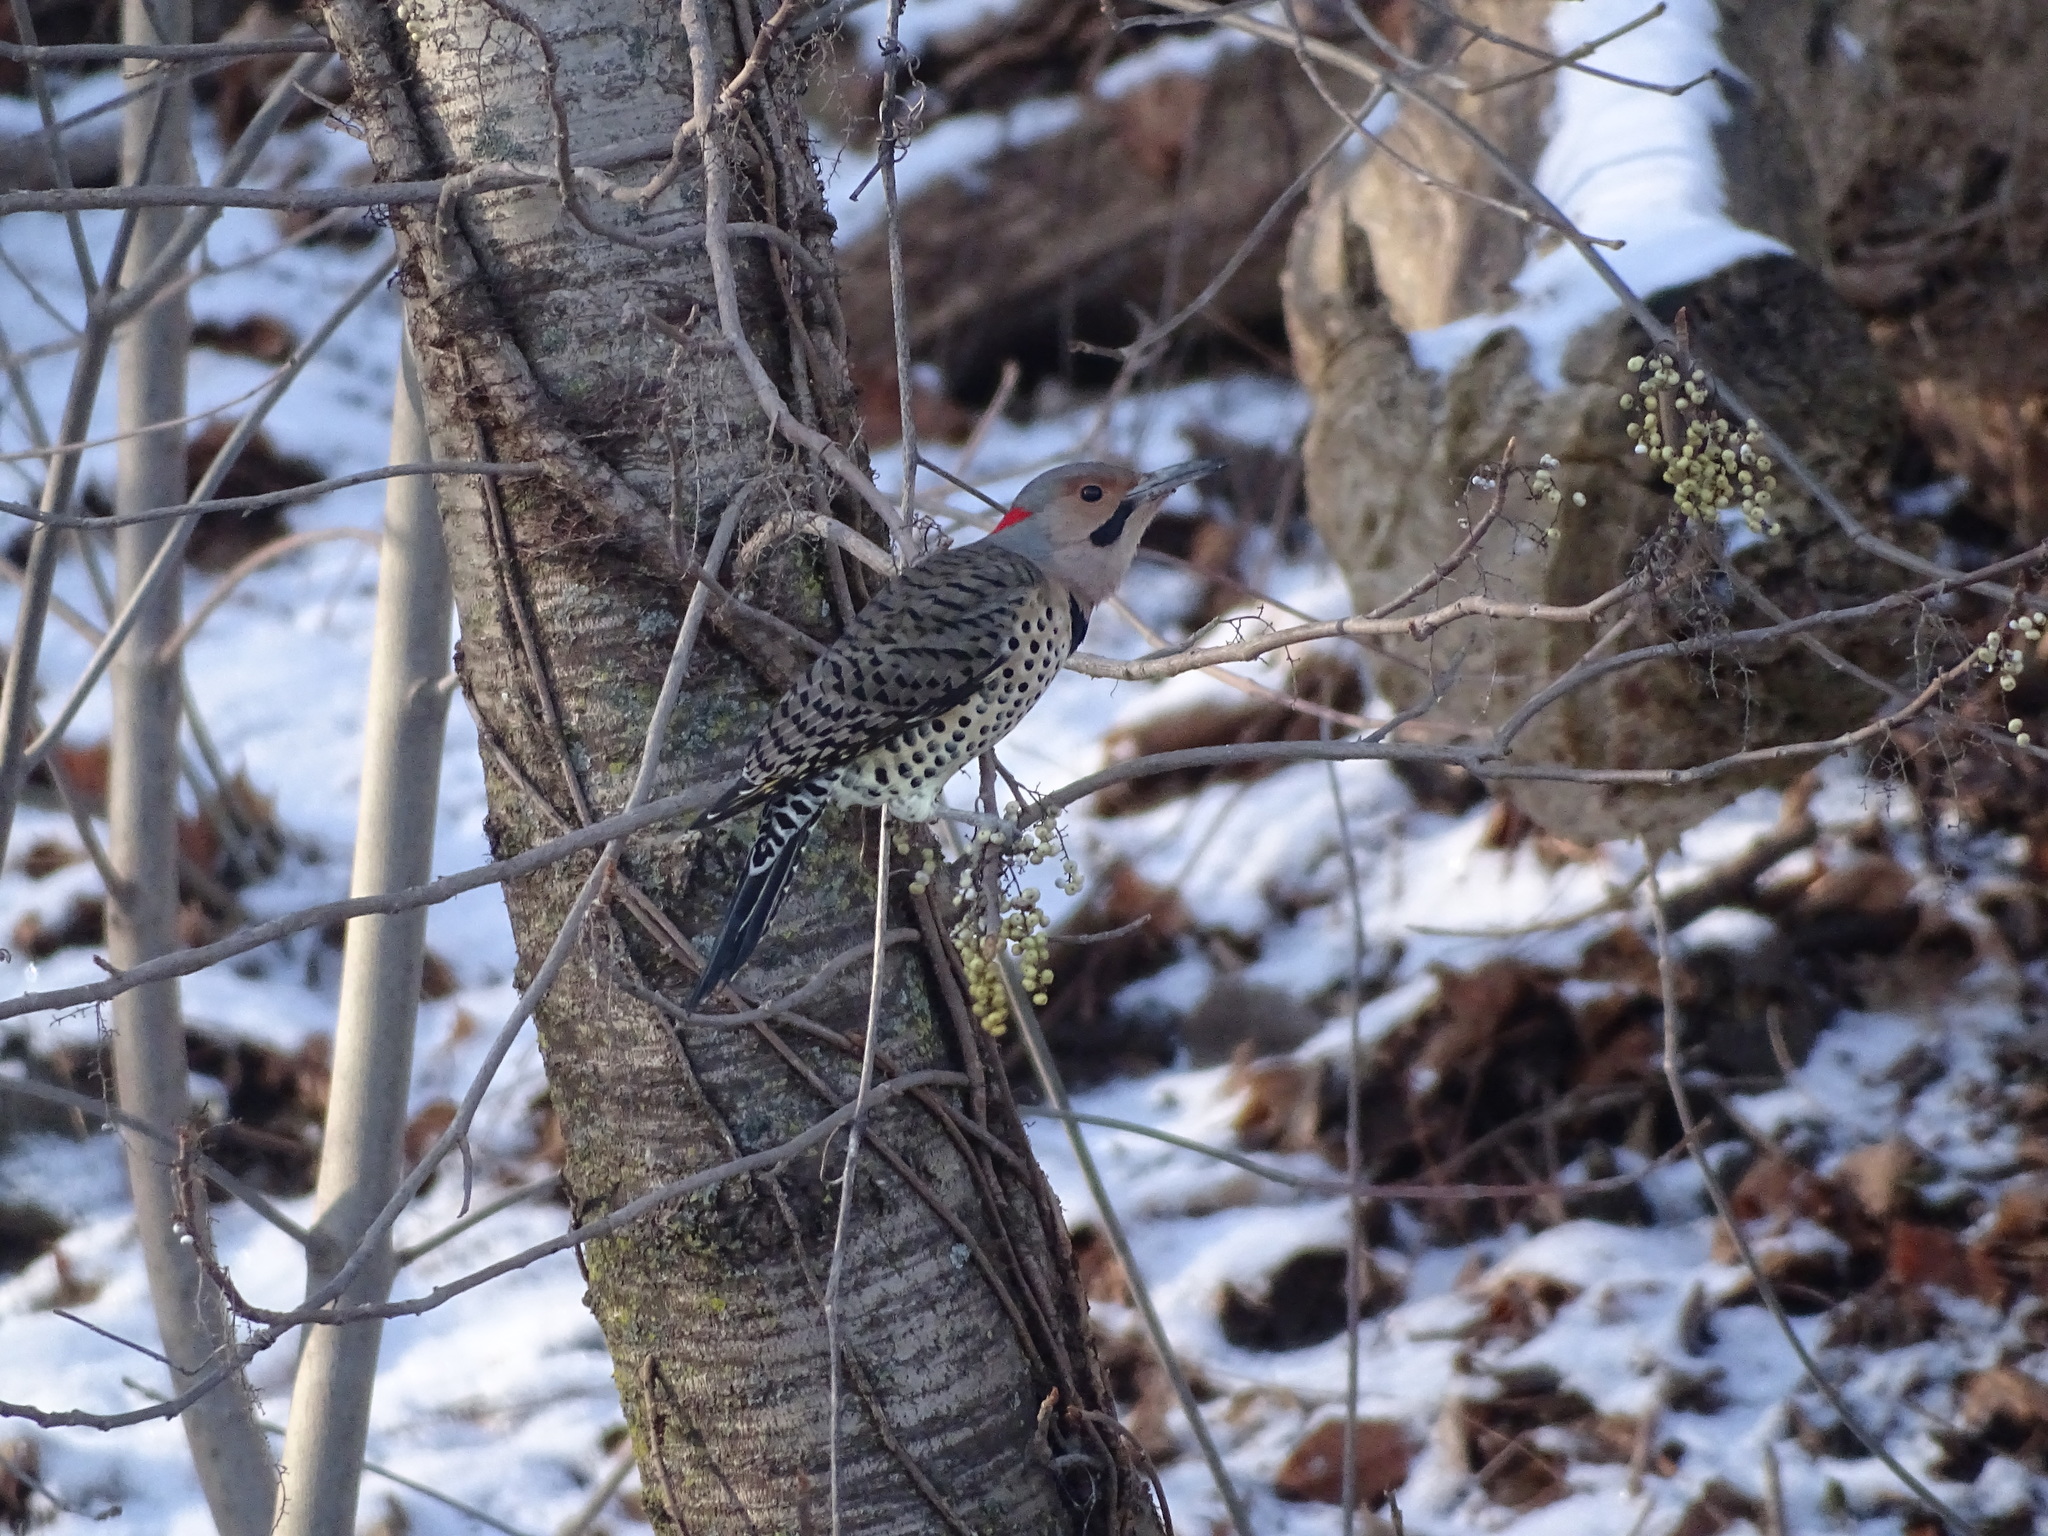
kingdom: Plantae
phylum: Tracheophyta
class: Magnoliopsida
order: Sapindales
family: Anacardiaceae
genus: Toxicodendron
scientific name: Toxicodendron radicans
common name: Poison ivy
